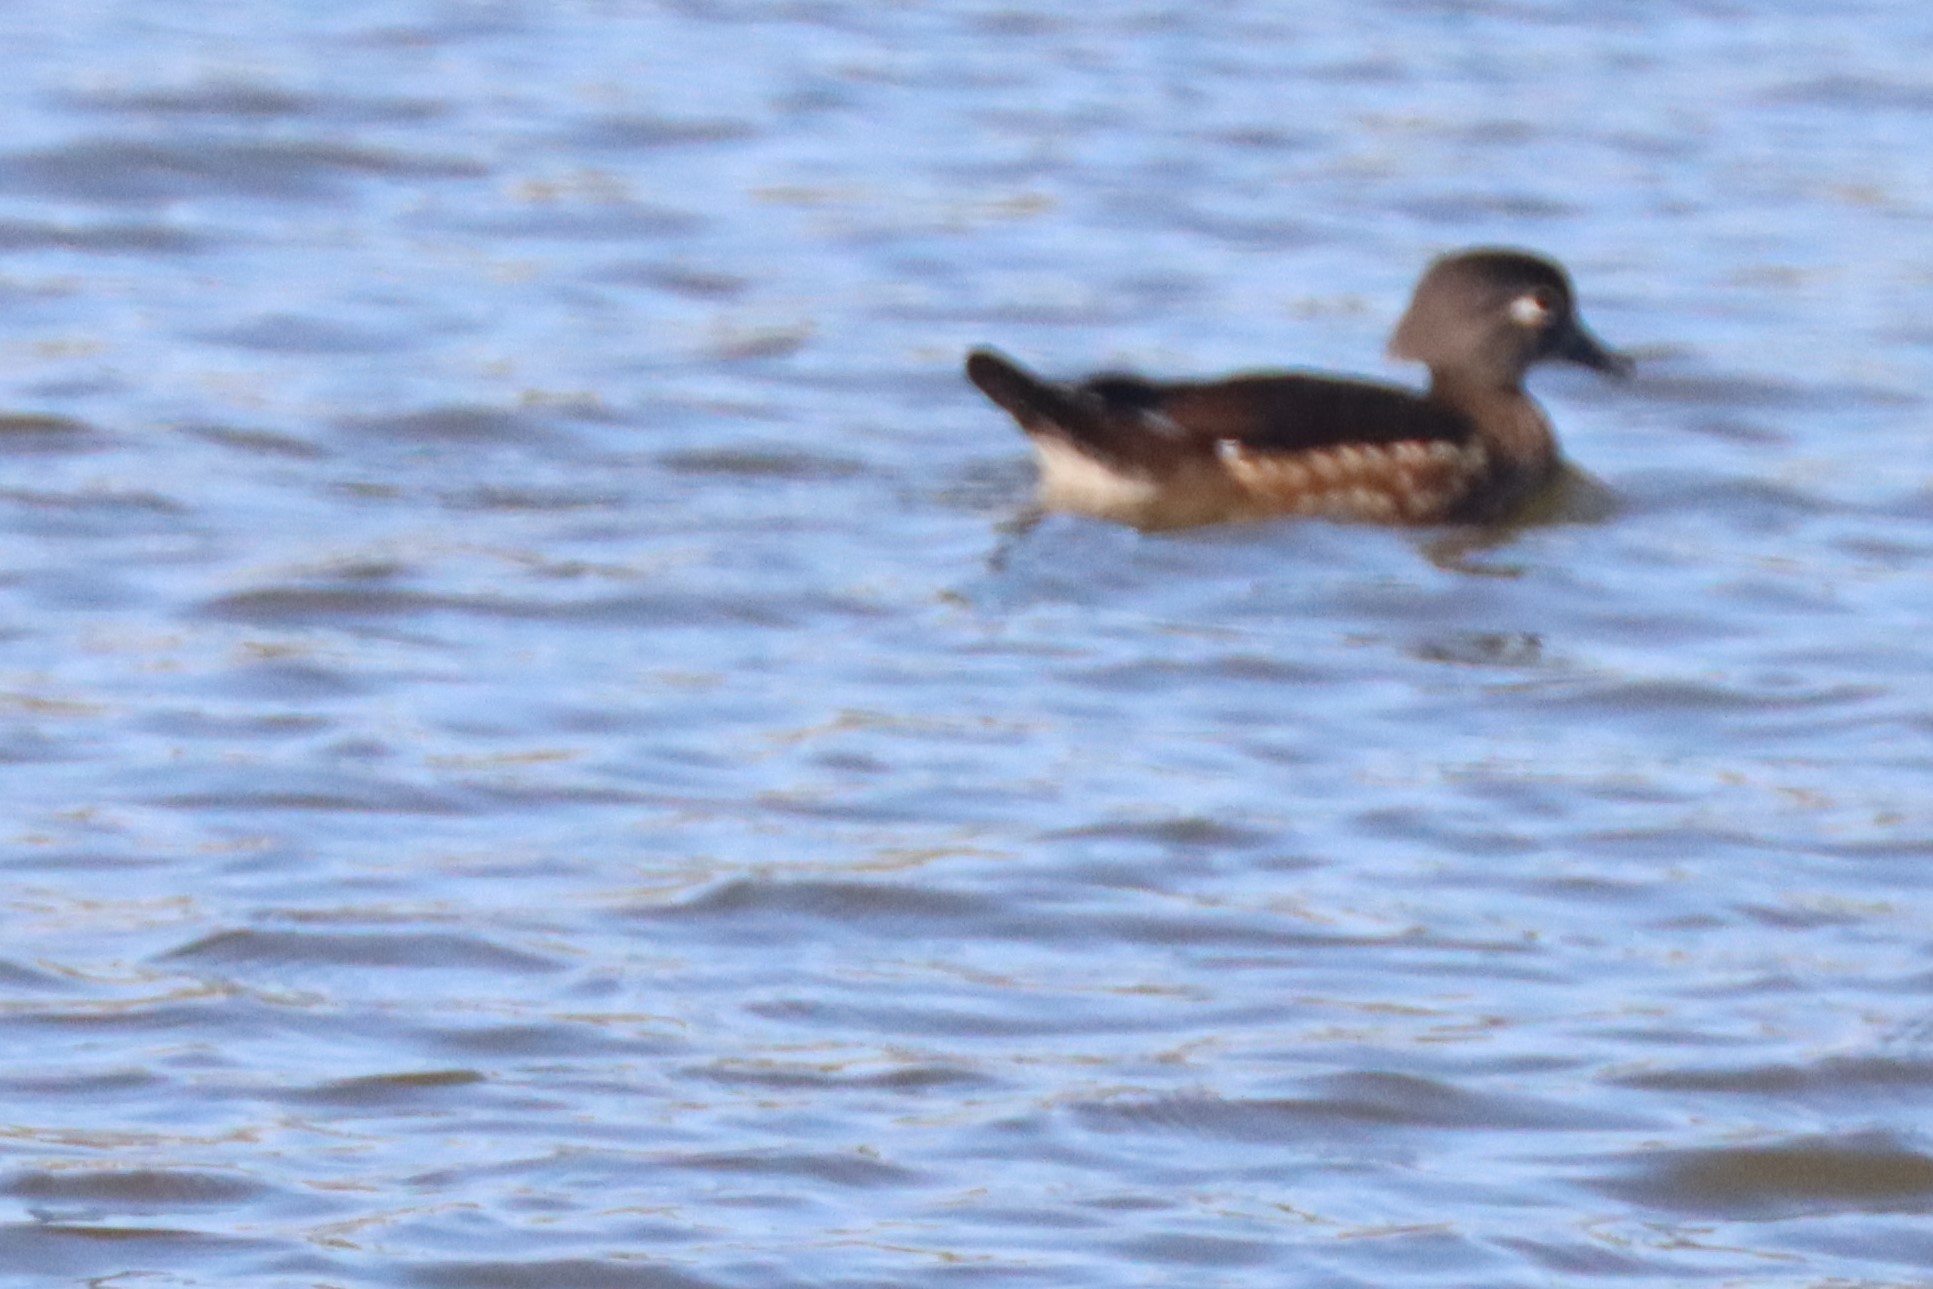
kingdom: Animalia
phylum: Chordata
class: Aves
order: Anseriformes
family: Anatidae
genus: Aix
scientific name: Aix sponsa
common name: Wood duck
